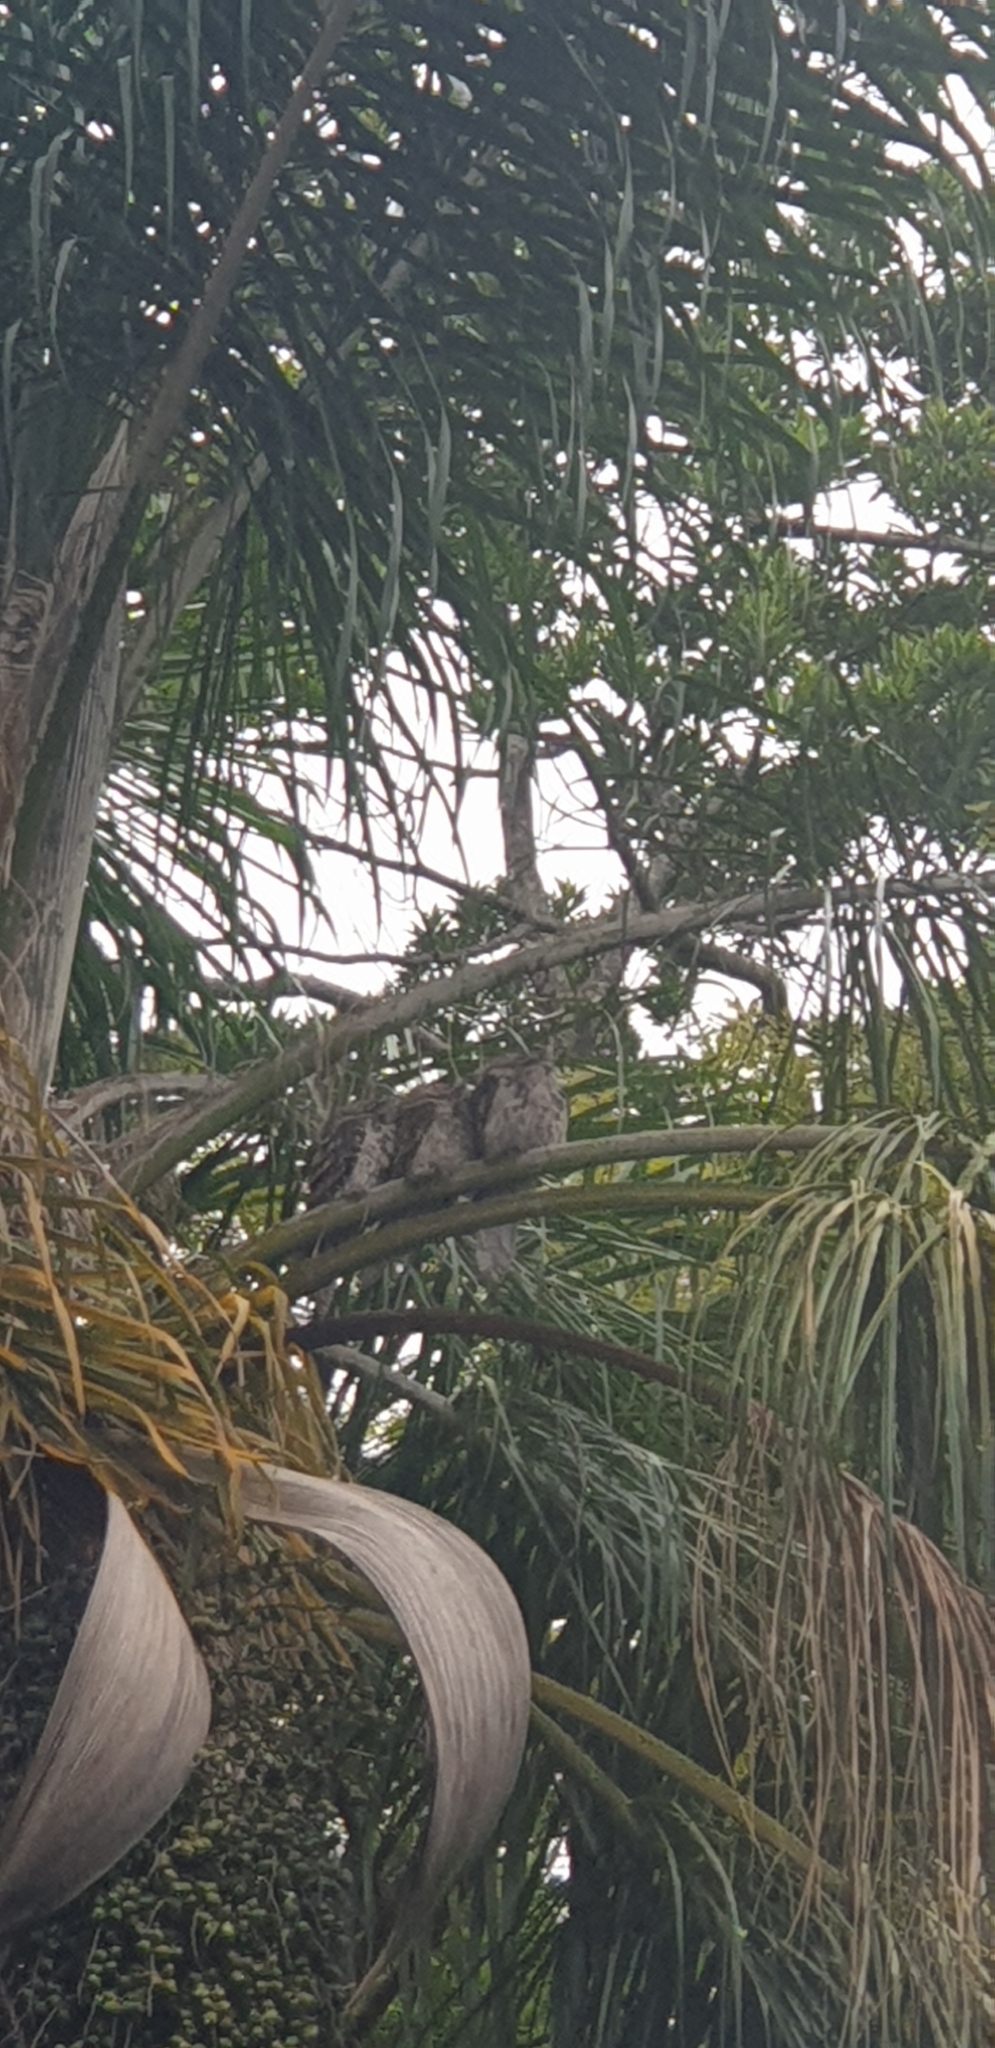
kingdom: Animalia
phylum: Chordata
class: Aves
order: Caprimulgiformes
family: Podargidae
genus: Podargus
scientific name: Podargus strigoides
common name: Tawny frogmouth
